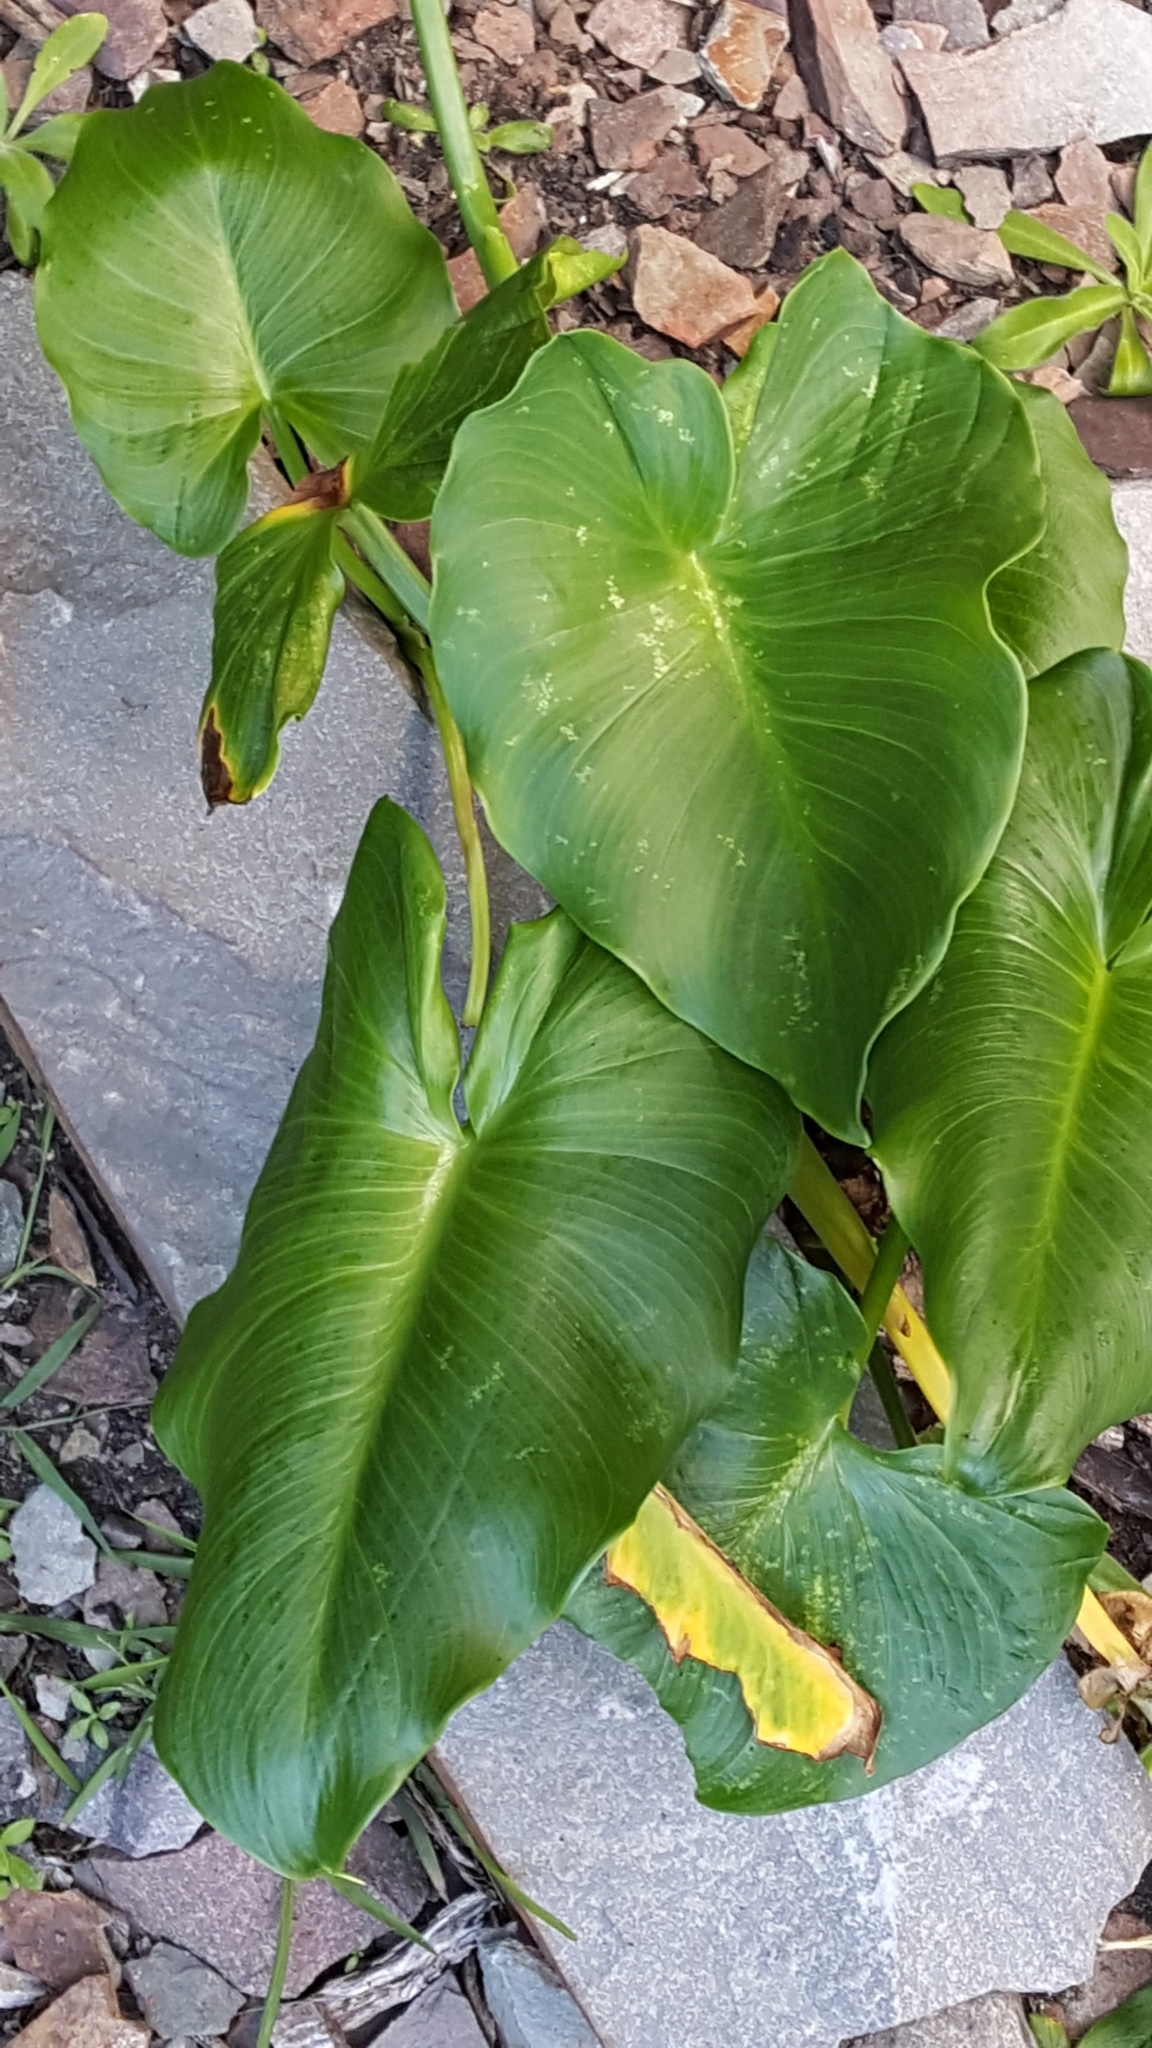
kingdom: Plantae
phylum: Tracheophyta
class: Liliopsida
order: Alismatales
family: Araceae
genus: Zantedeschia
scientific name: Zantedeschia aethiopica
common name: Altar-lily
